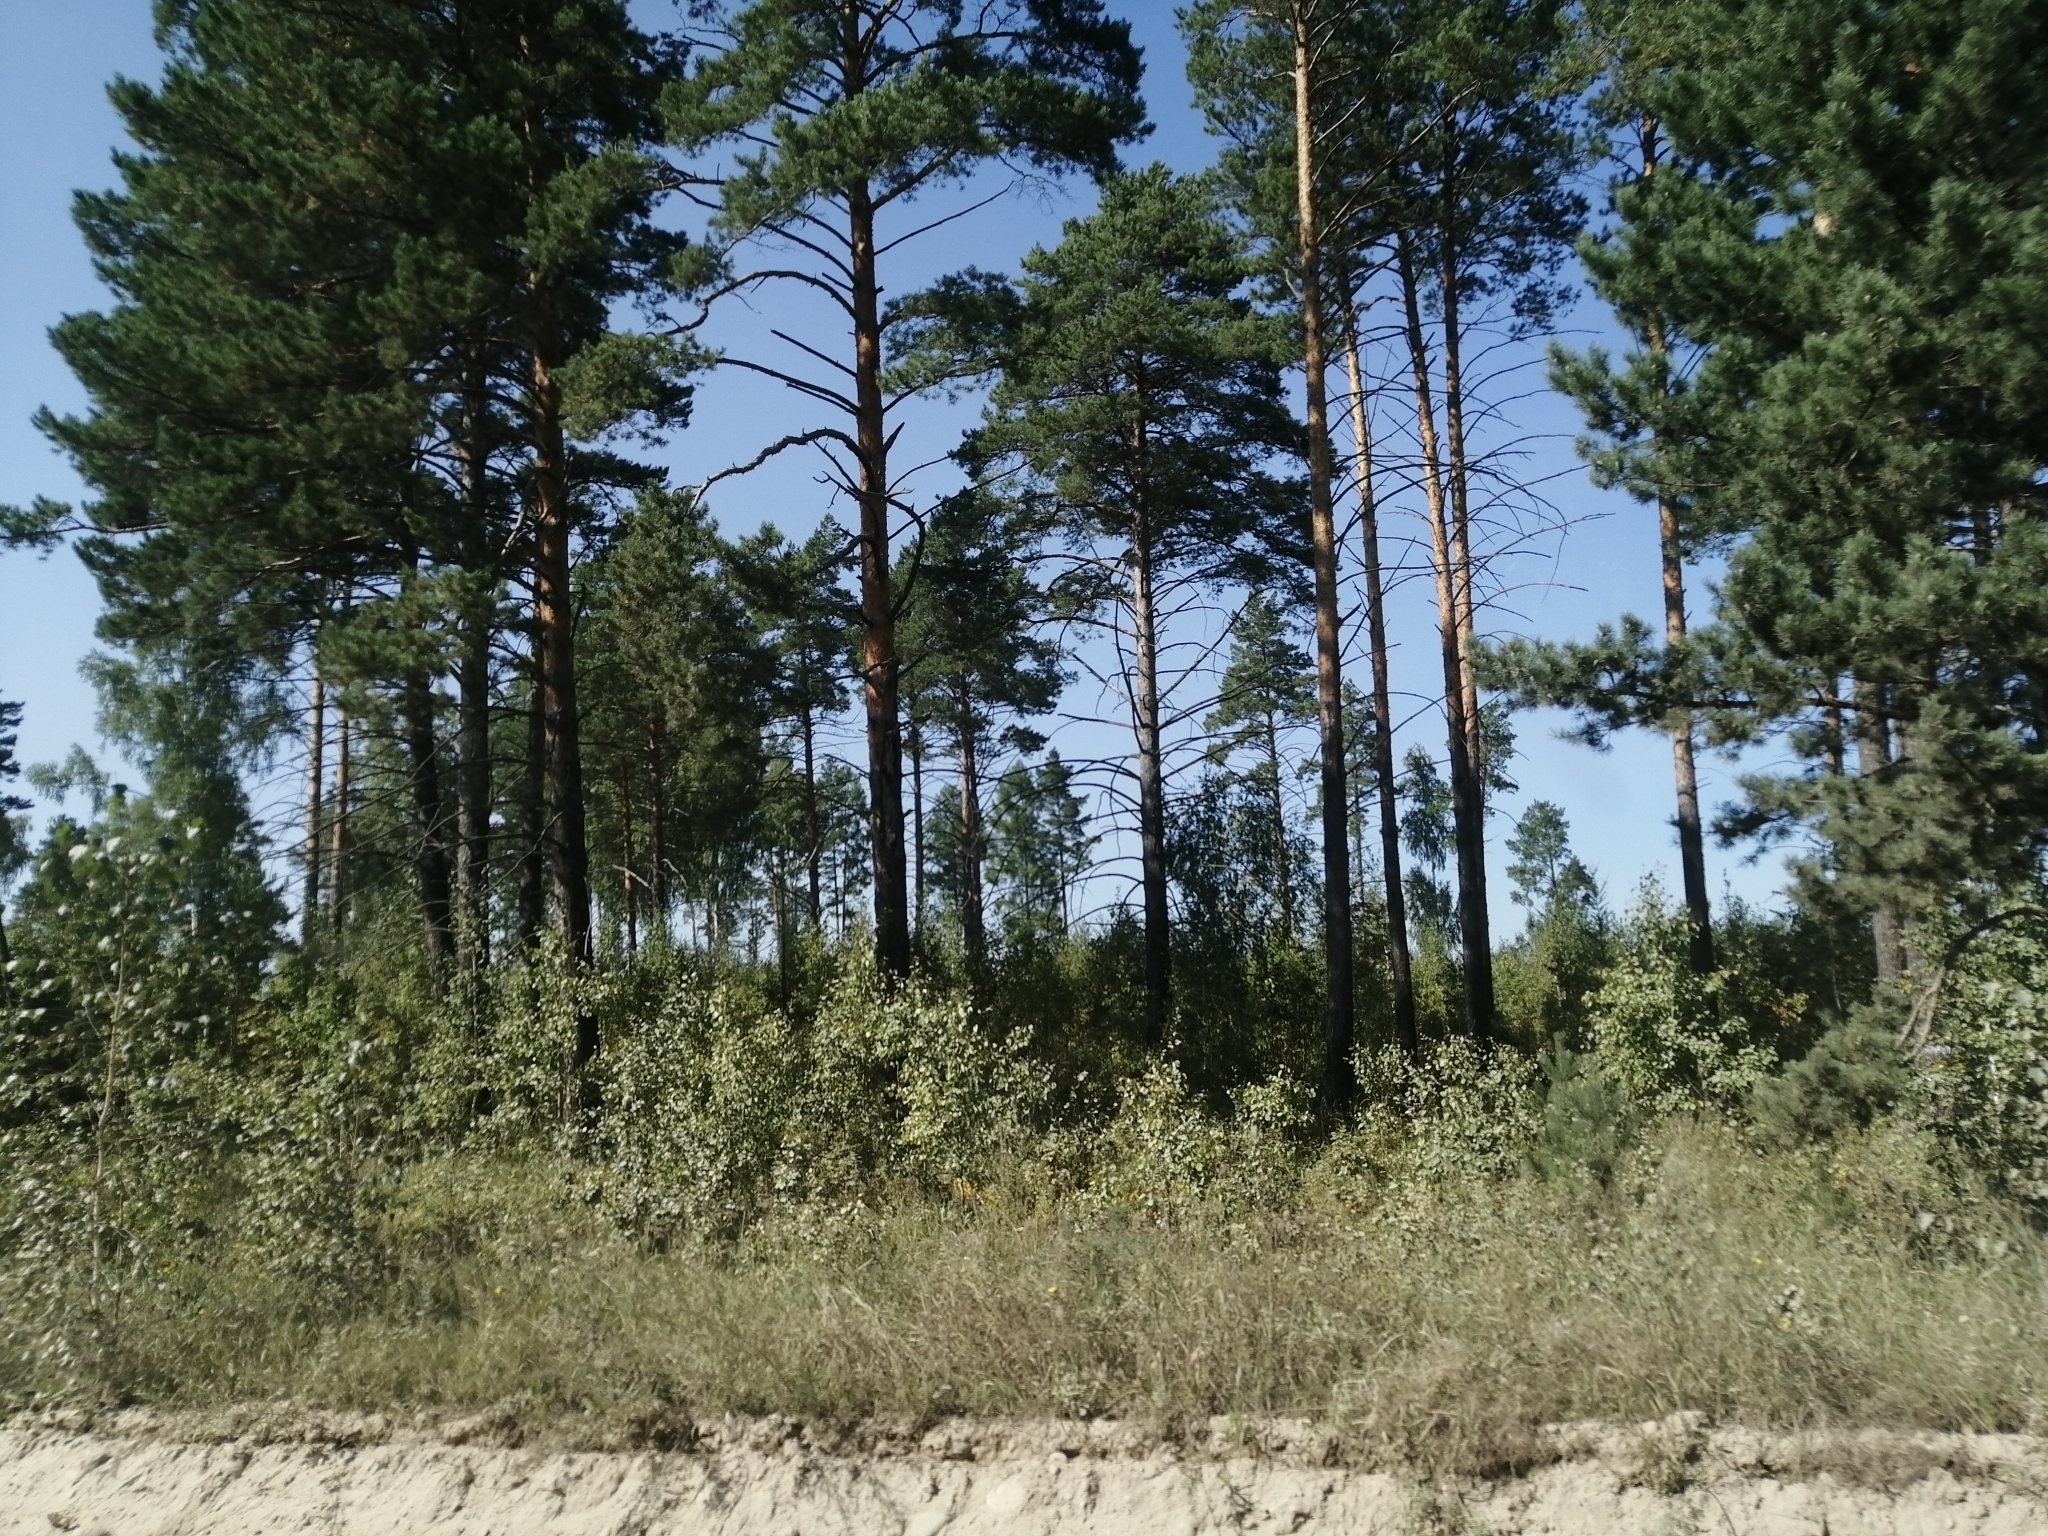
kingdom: Plantae
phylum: Tracheophyta
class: Pinopsida
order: Pinales
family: Pinaceae
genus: Pinus
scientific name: Pinus sylvestris
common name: Scots pine
